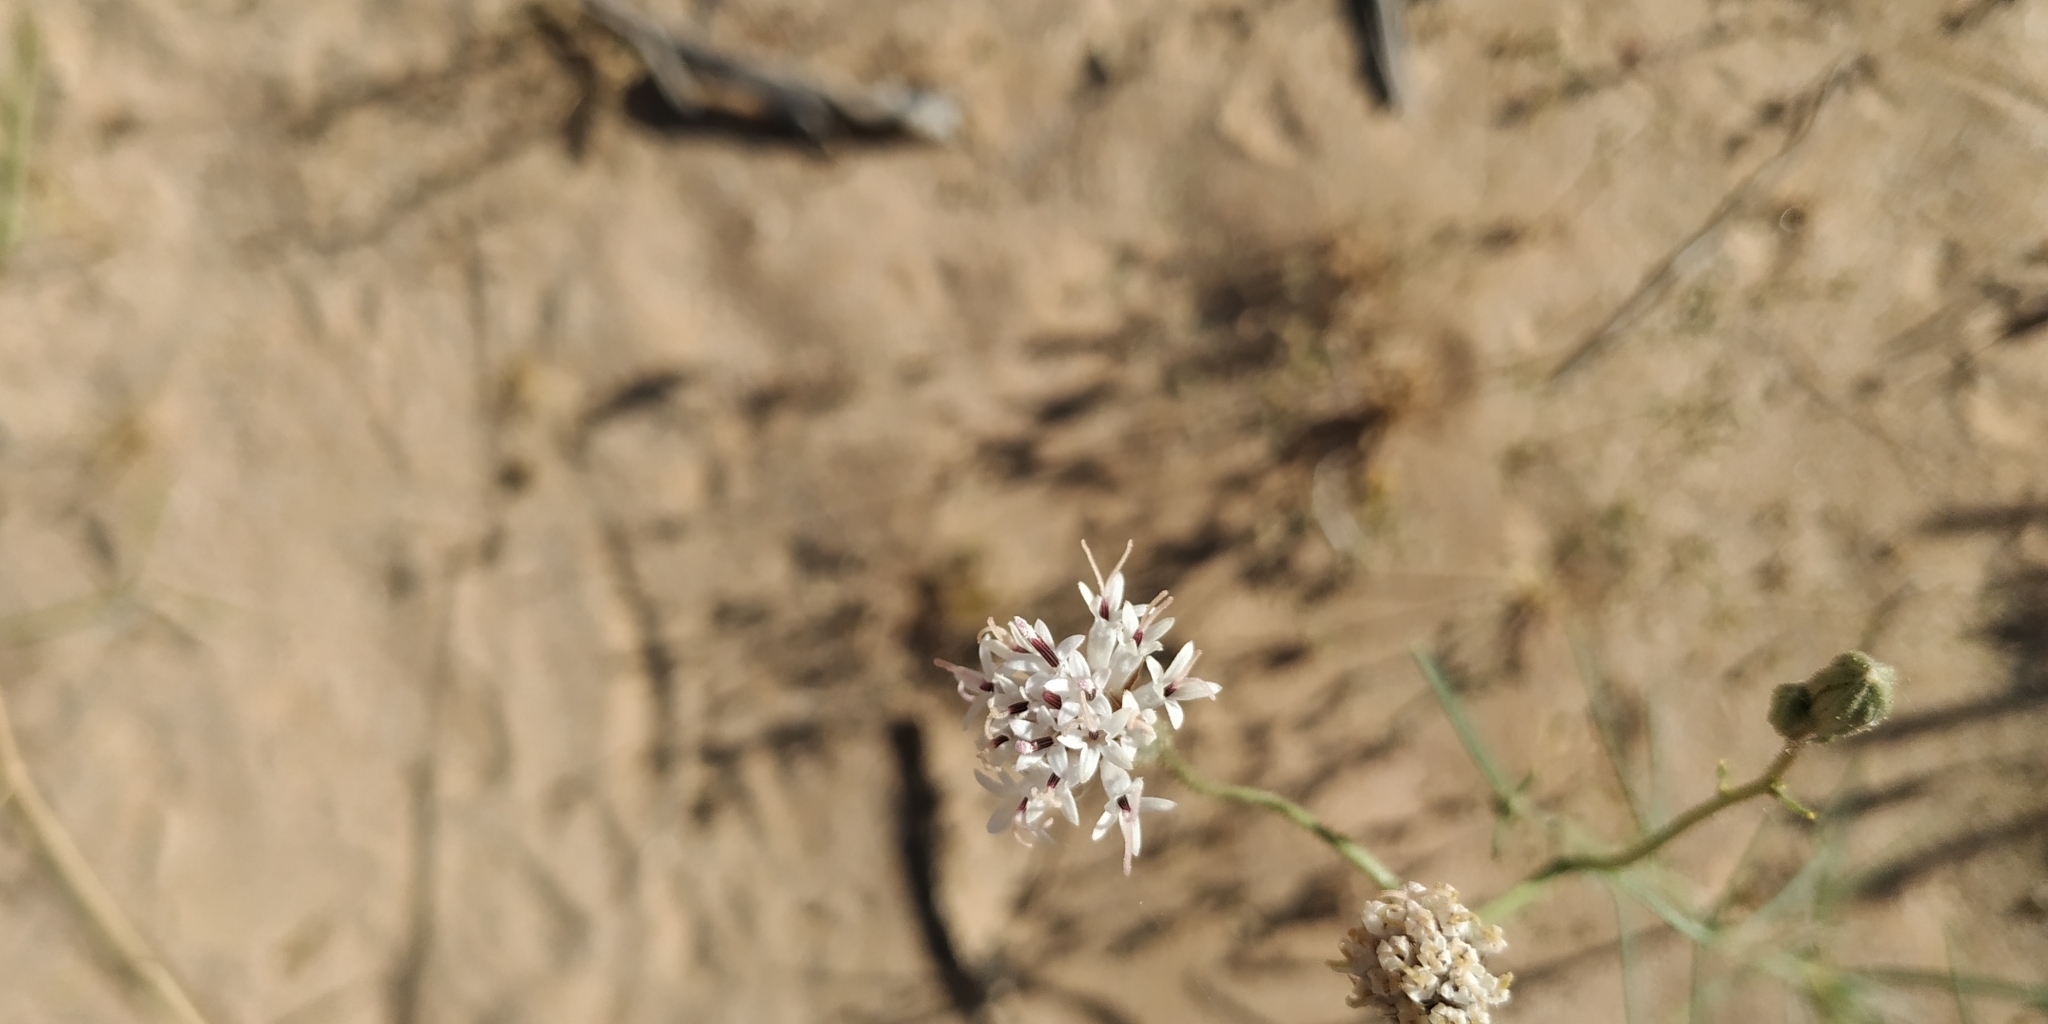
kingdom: Plantae
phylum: Tracheophyta
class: Magnoliopsida
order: Asterales
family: Asteraceae
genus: Palafoxia
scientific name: Palafoxia arida
